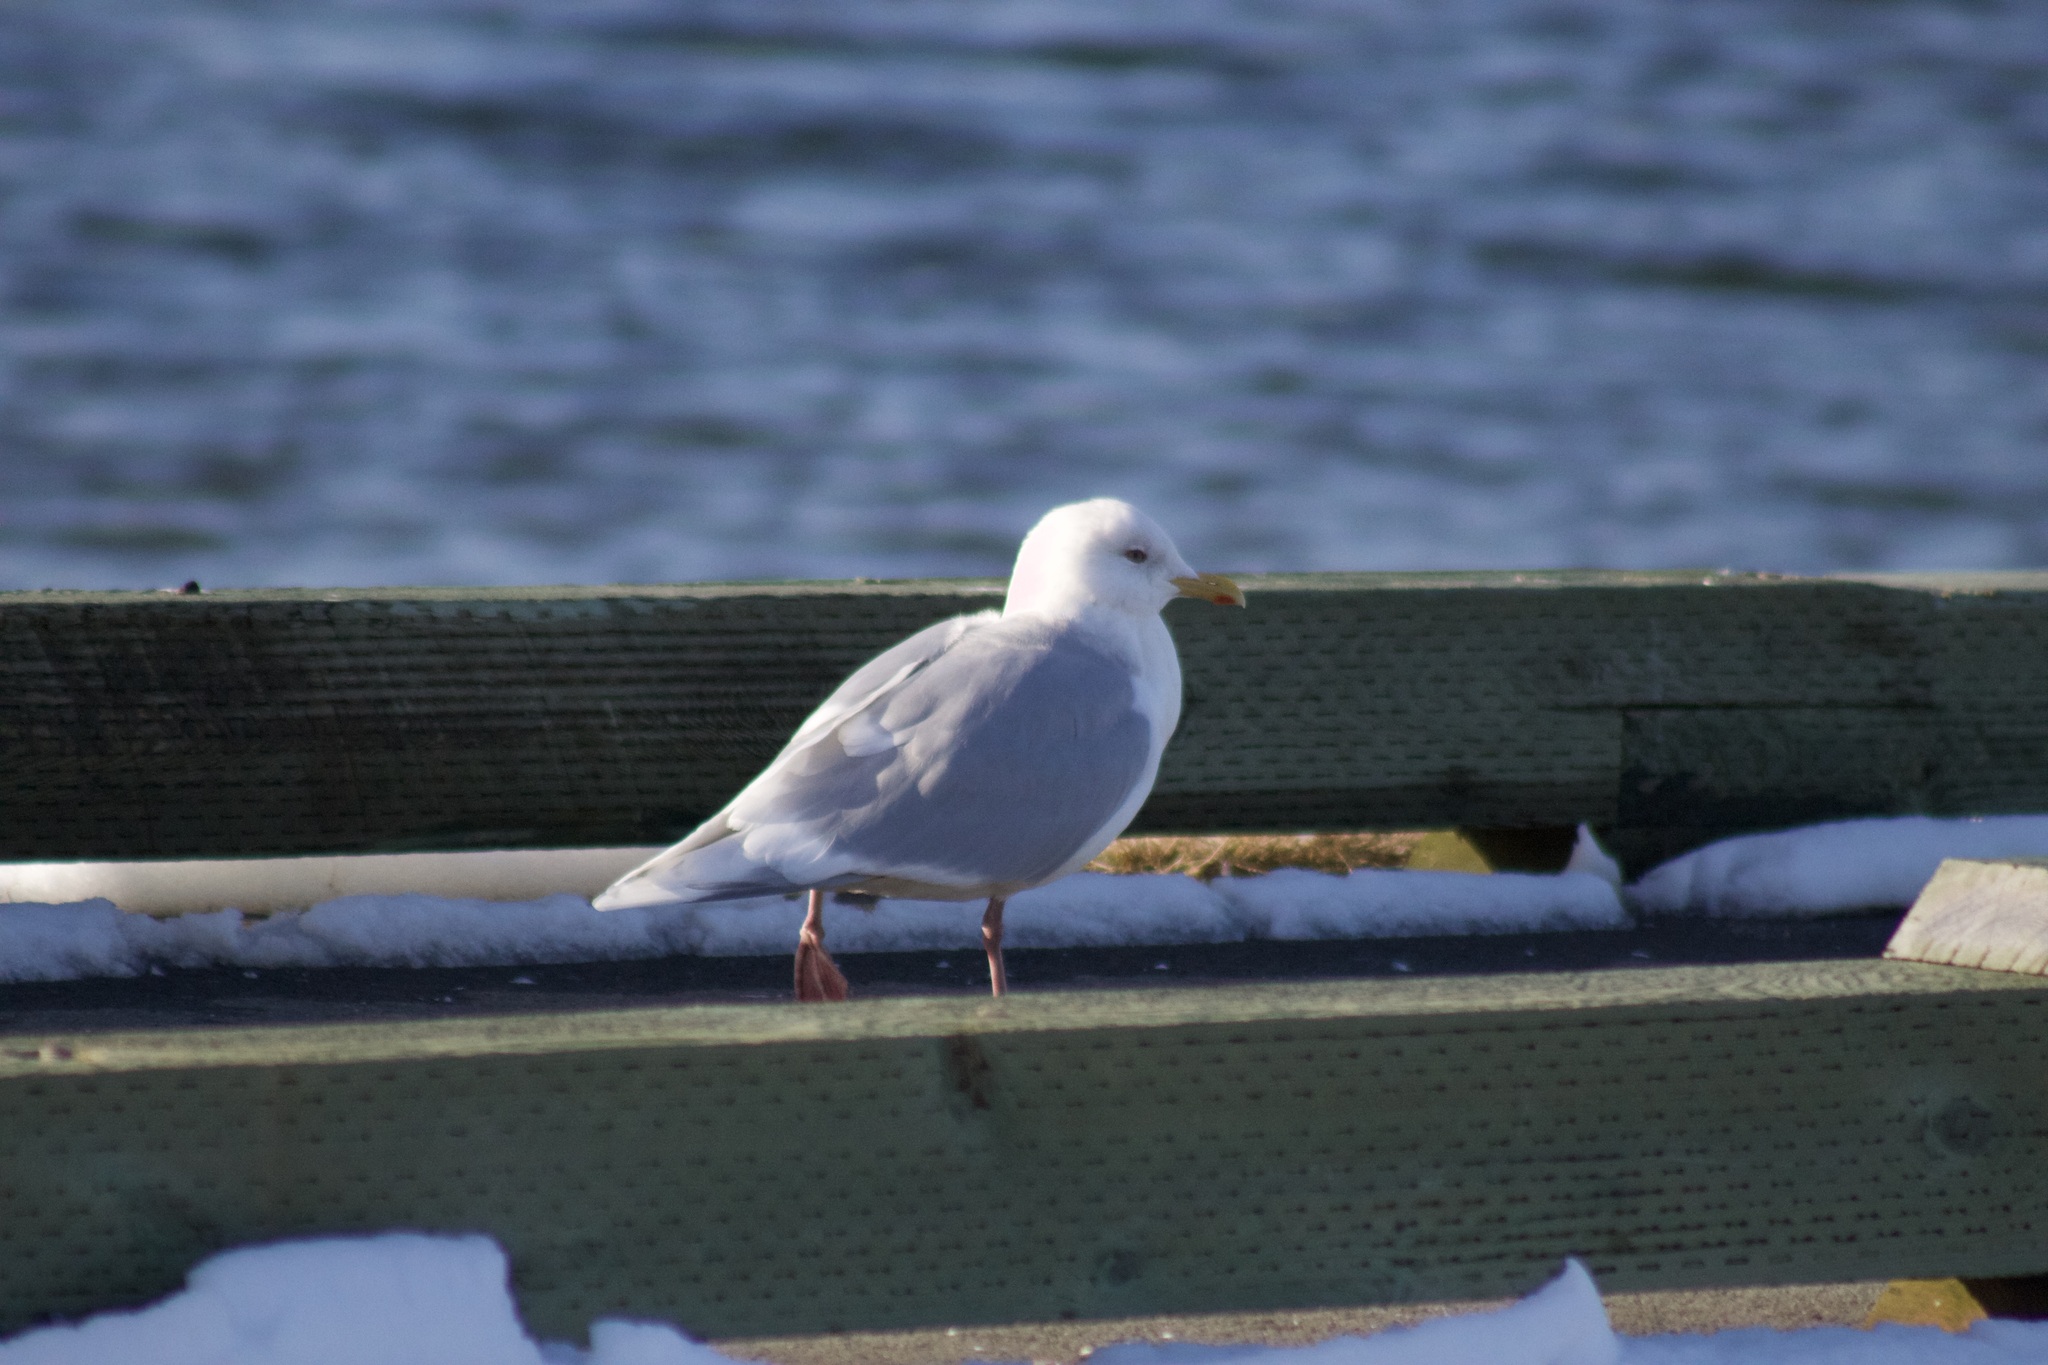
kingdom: Animalia
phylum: Chordata
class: Aves
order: Charadriiformes
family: Laridae
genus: Larus
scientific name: Larus glaucoides
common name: Iceland gull
